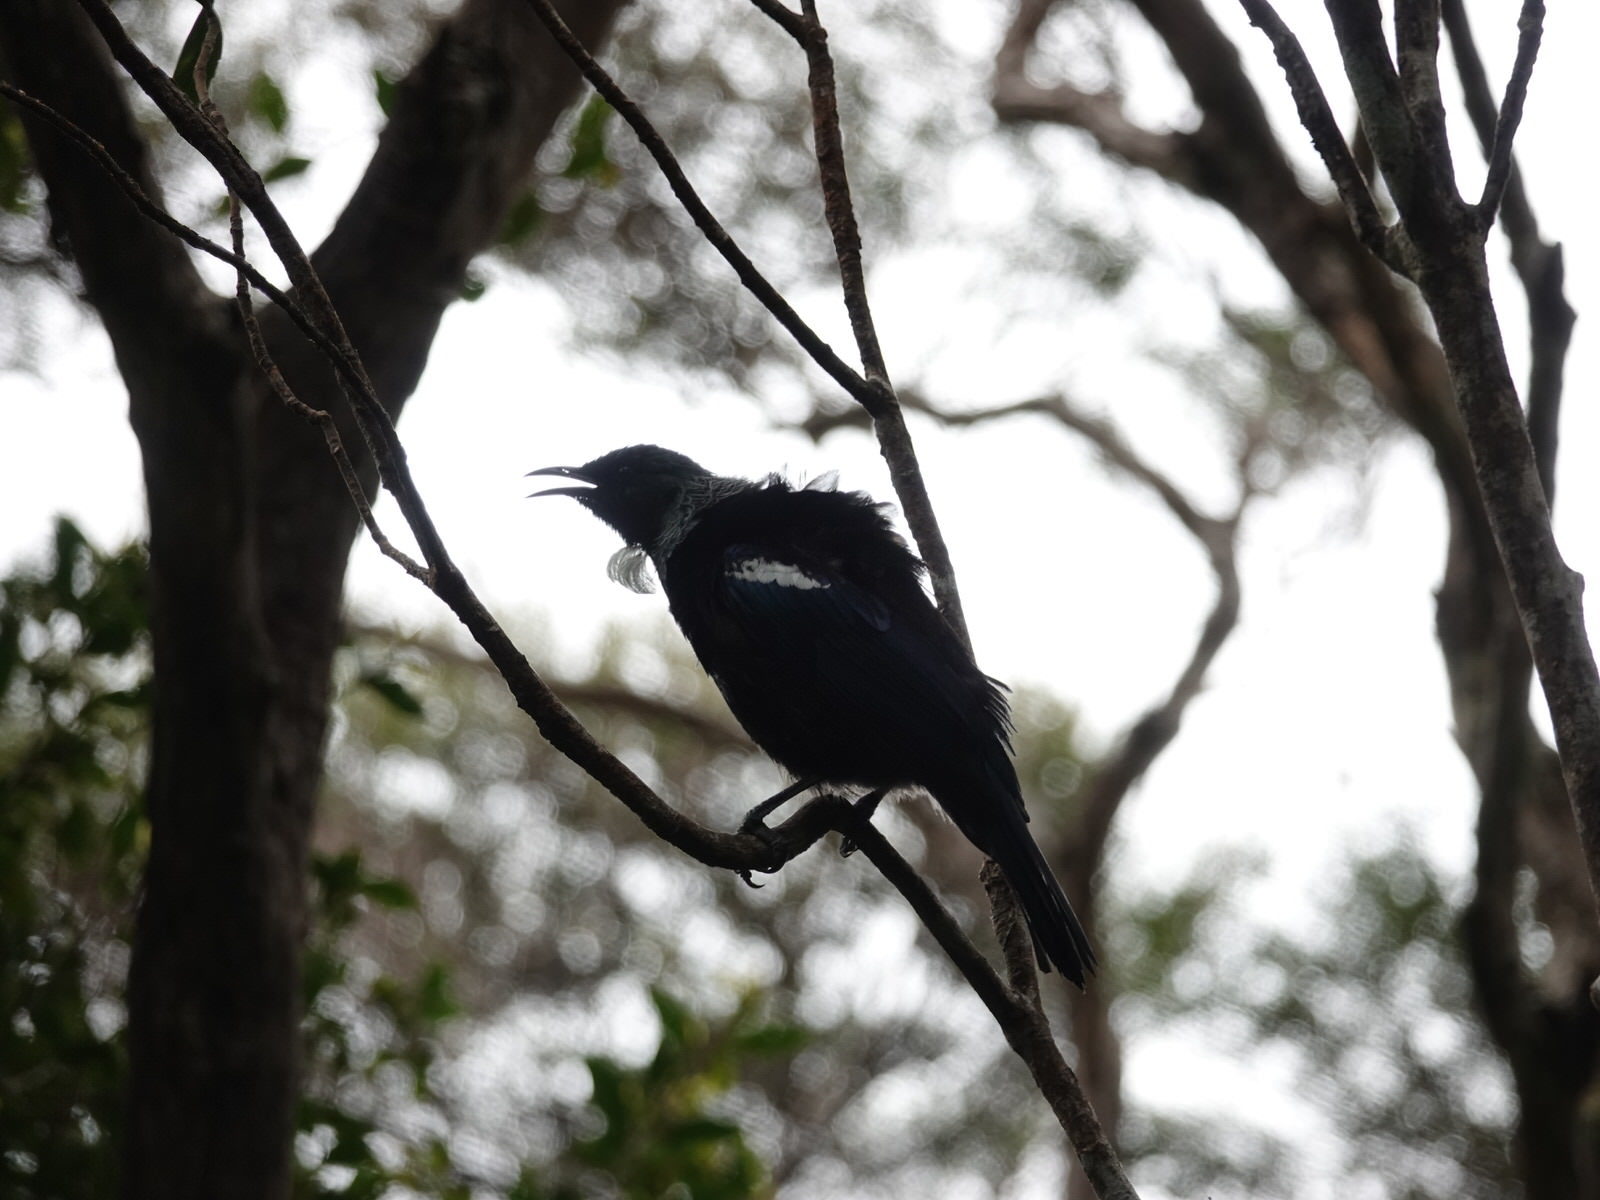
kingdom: Animalia
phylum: Chordata
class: Aves
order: Passeriformes
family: Meliphagidae
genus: Prosthemadera
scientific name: Prosthemadera novaeseelandiae
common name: Tui
